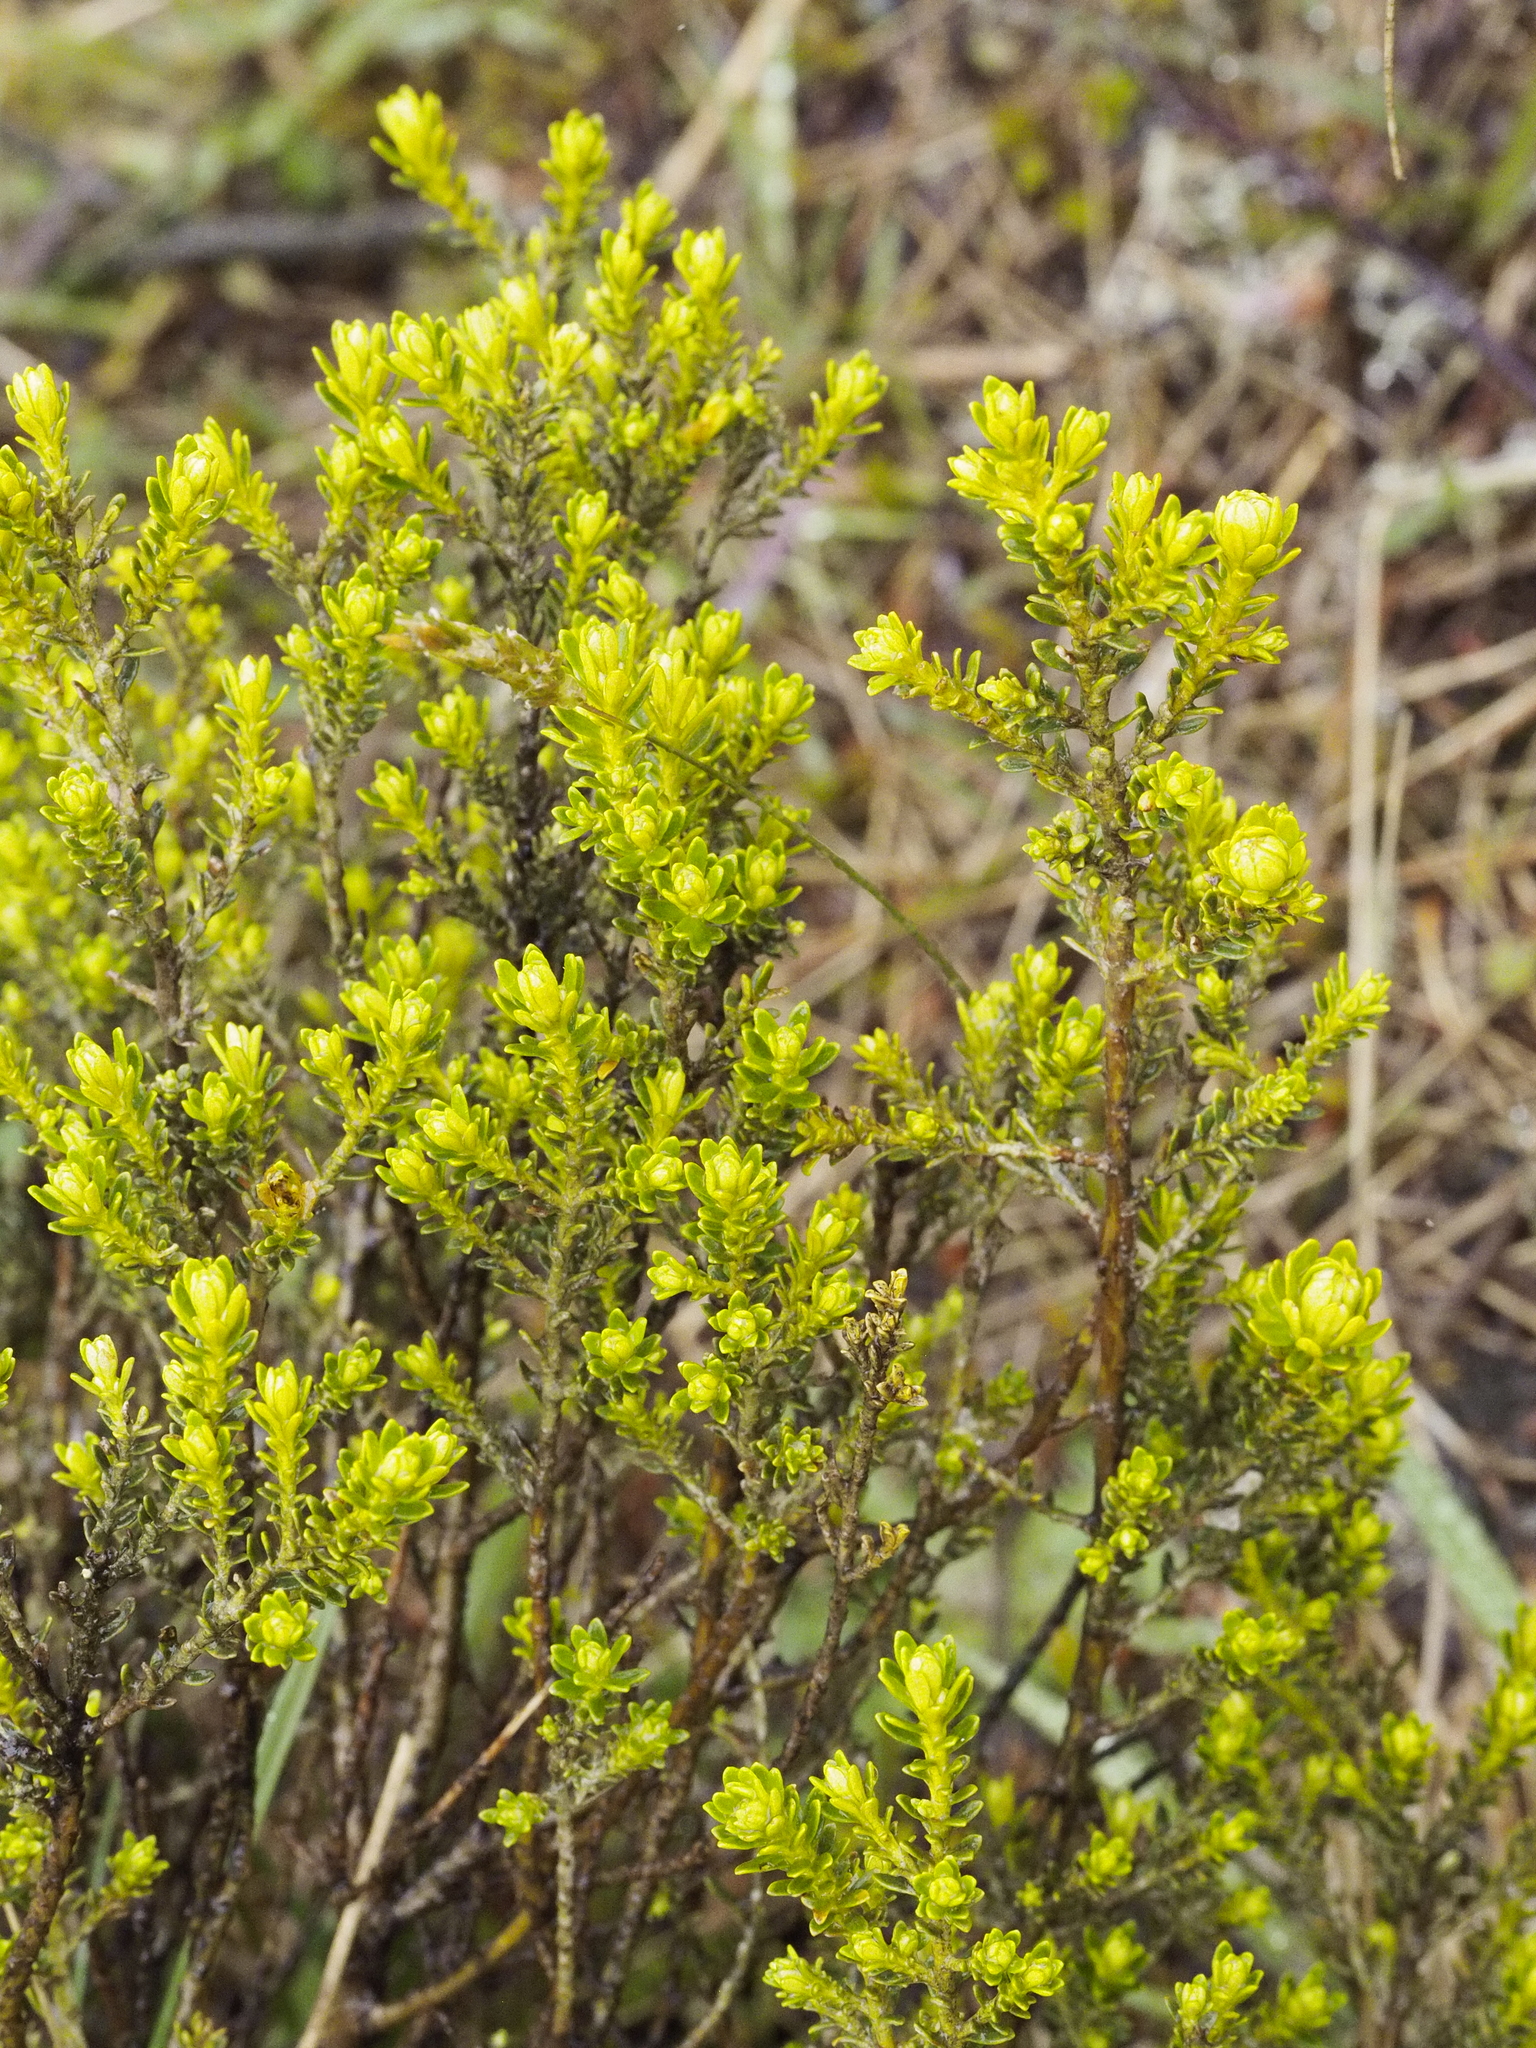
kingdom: Plantae
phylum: Tracheophyta
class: Magnoliopsida
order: Asterales
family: Asteraceae
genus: Ozothamnus
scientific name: Ozothamnus leptophyllus
